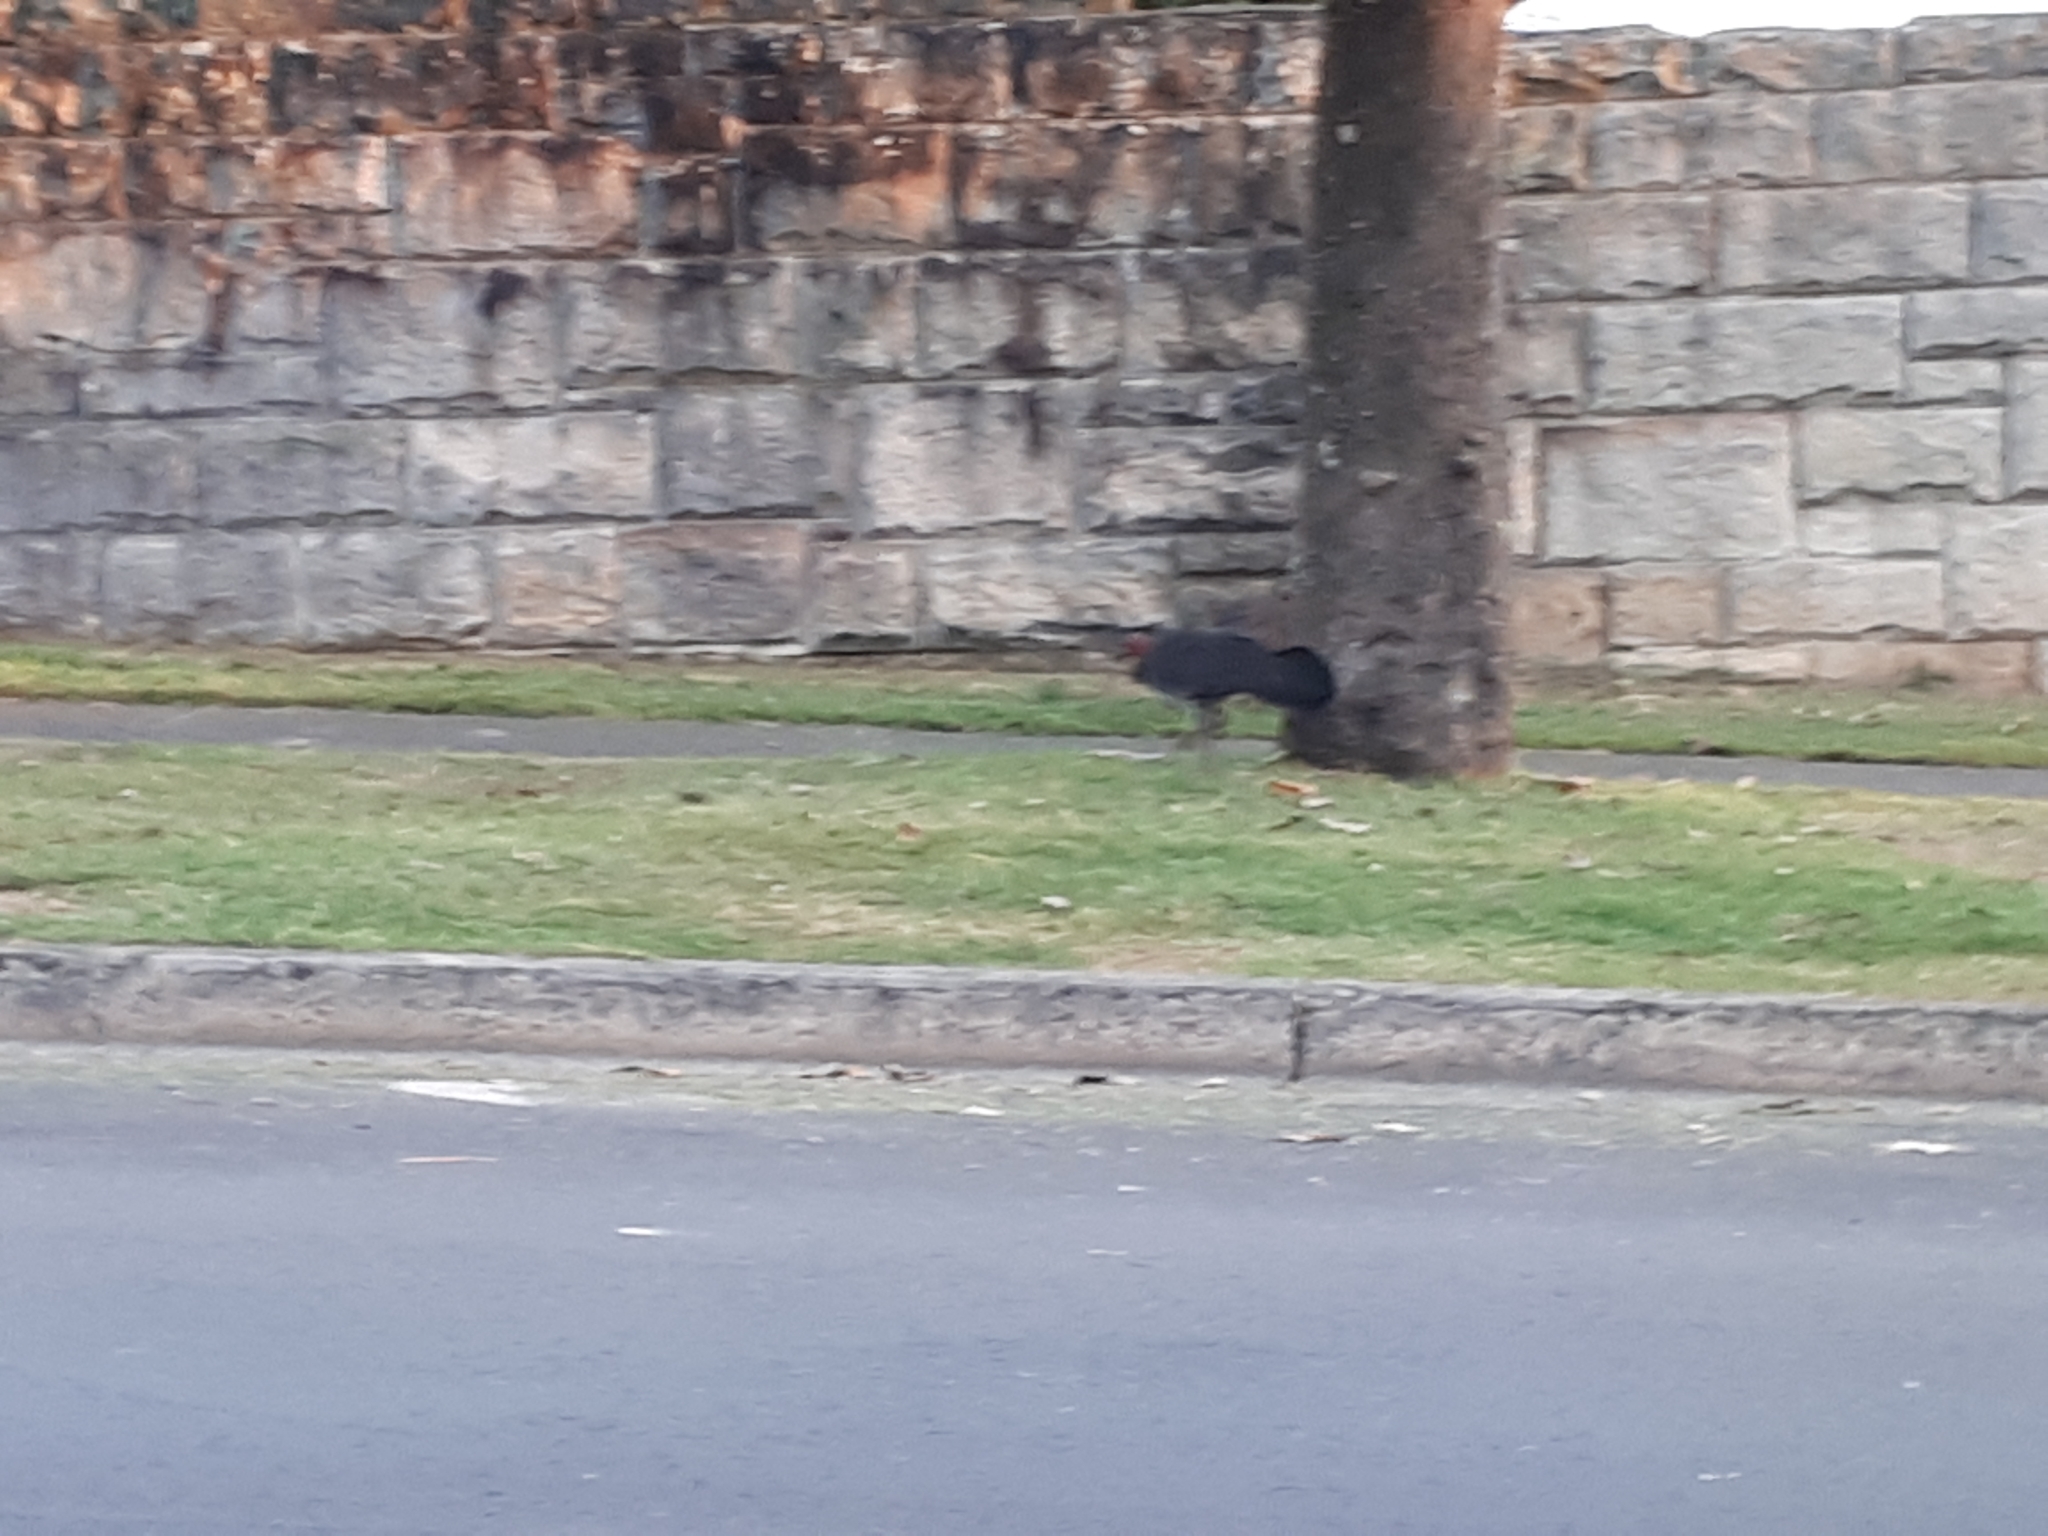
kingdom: Animalia
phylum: Chordata
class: Aves
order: Galliformes
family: Megapodiidae
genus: Alectura
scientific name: Alectura lathami
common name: Australian brushturkey
